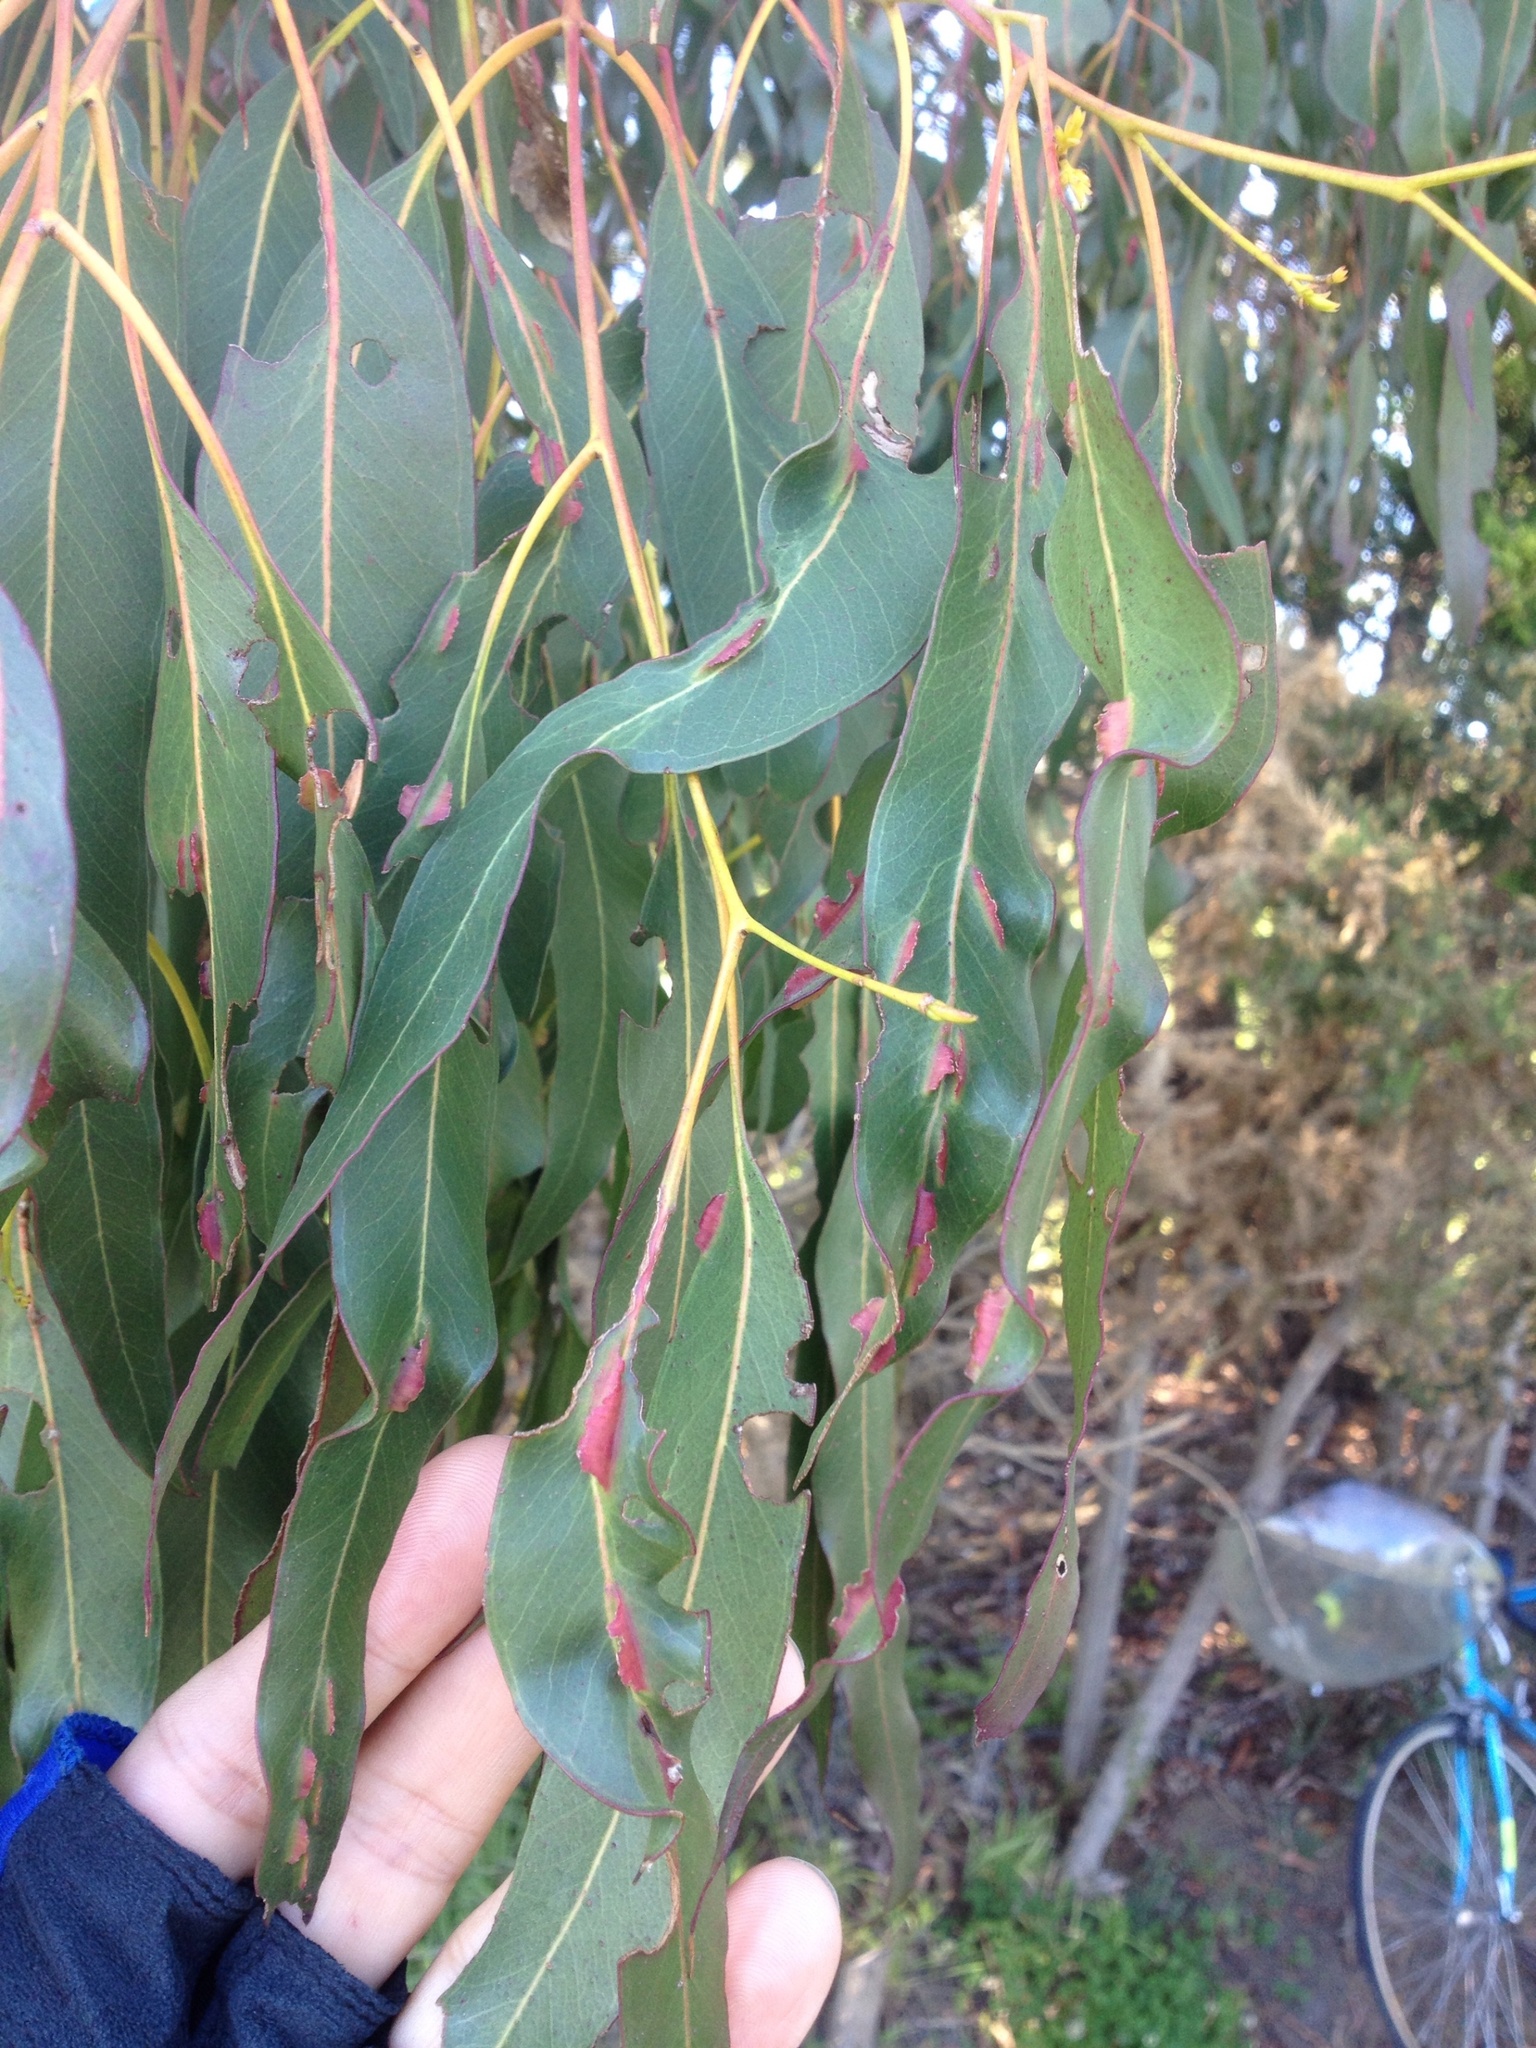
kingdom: Animalia
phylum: Arthropoda
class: Insecta
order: Hymenoptera
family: Pteromalidae
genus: Nambouria
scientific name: Nambouria xanthops
